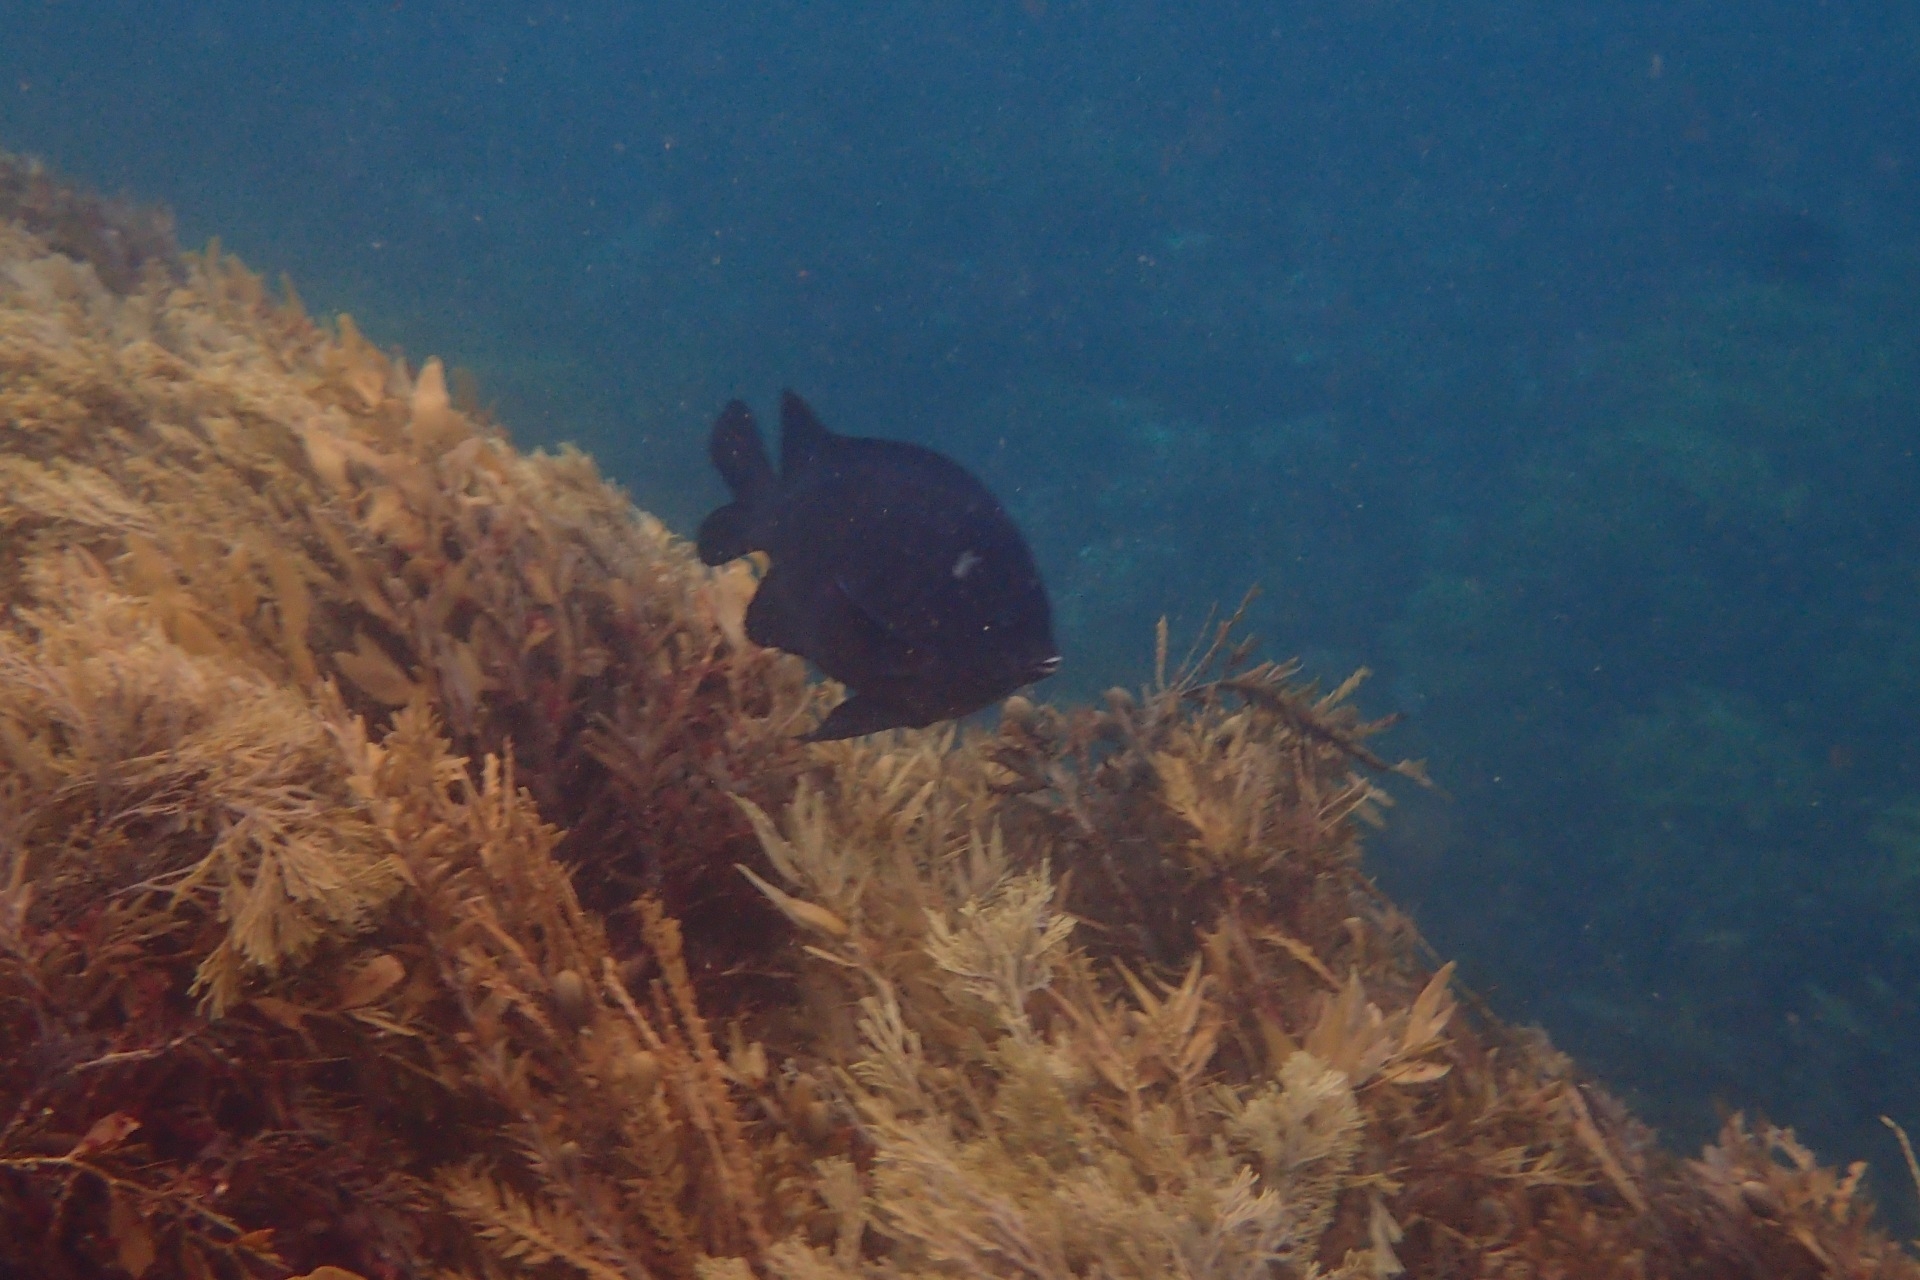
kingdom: Animalia
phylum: Chordata
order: Perciformes
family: Pomacentridae
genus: Parma
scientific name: Parma alboscapularis
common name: Black angelfish
